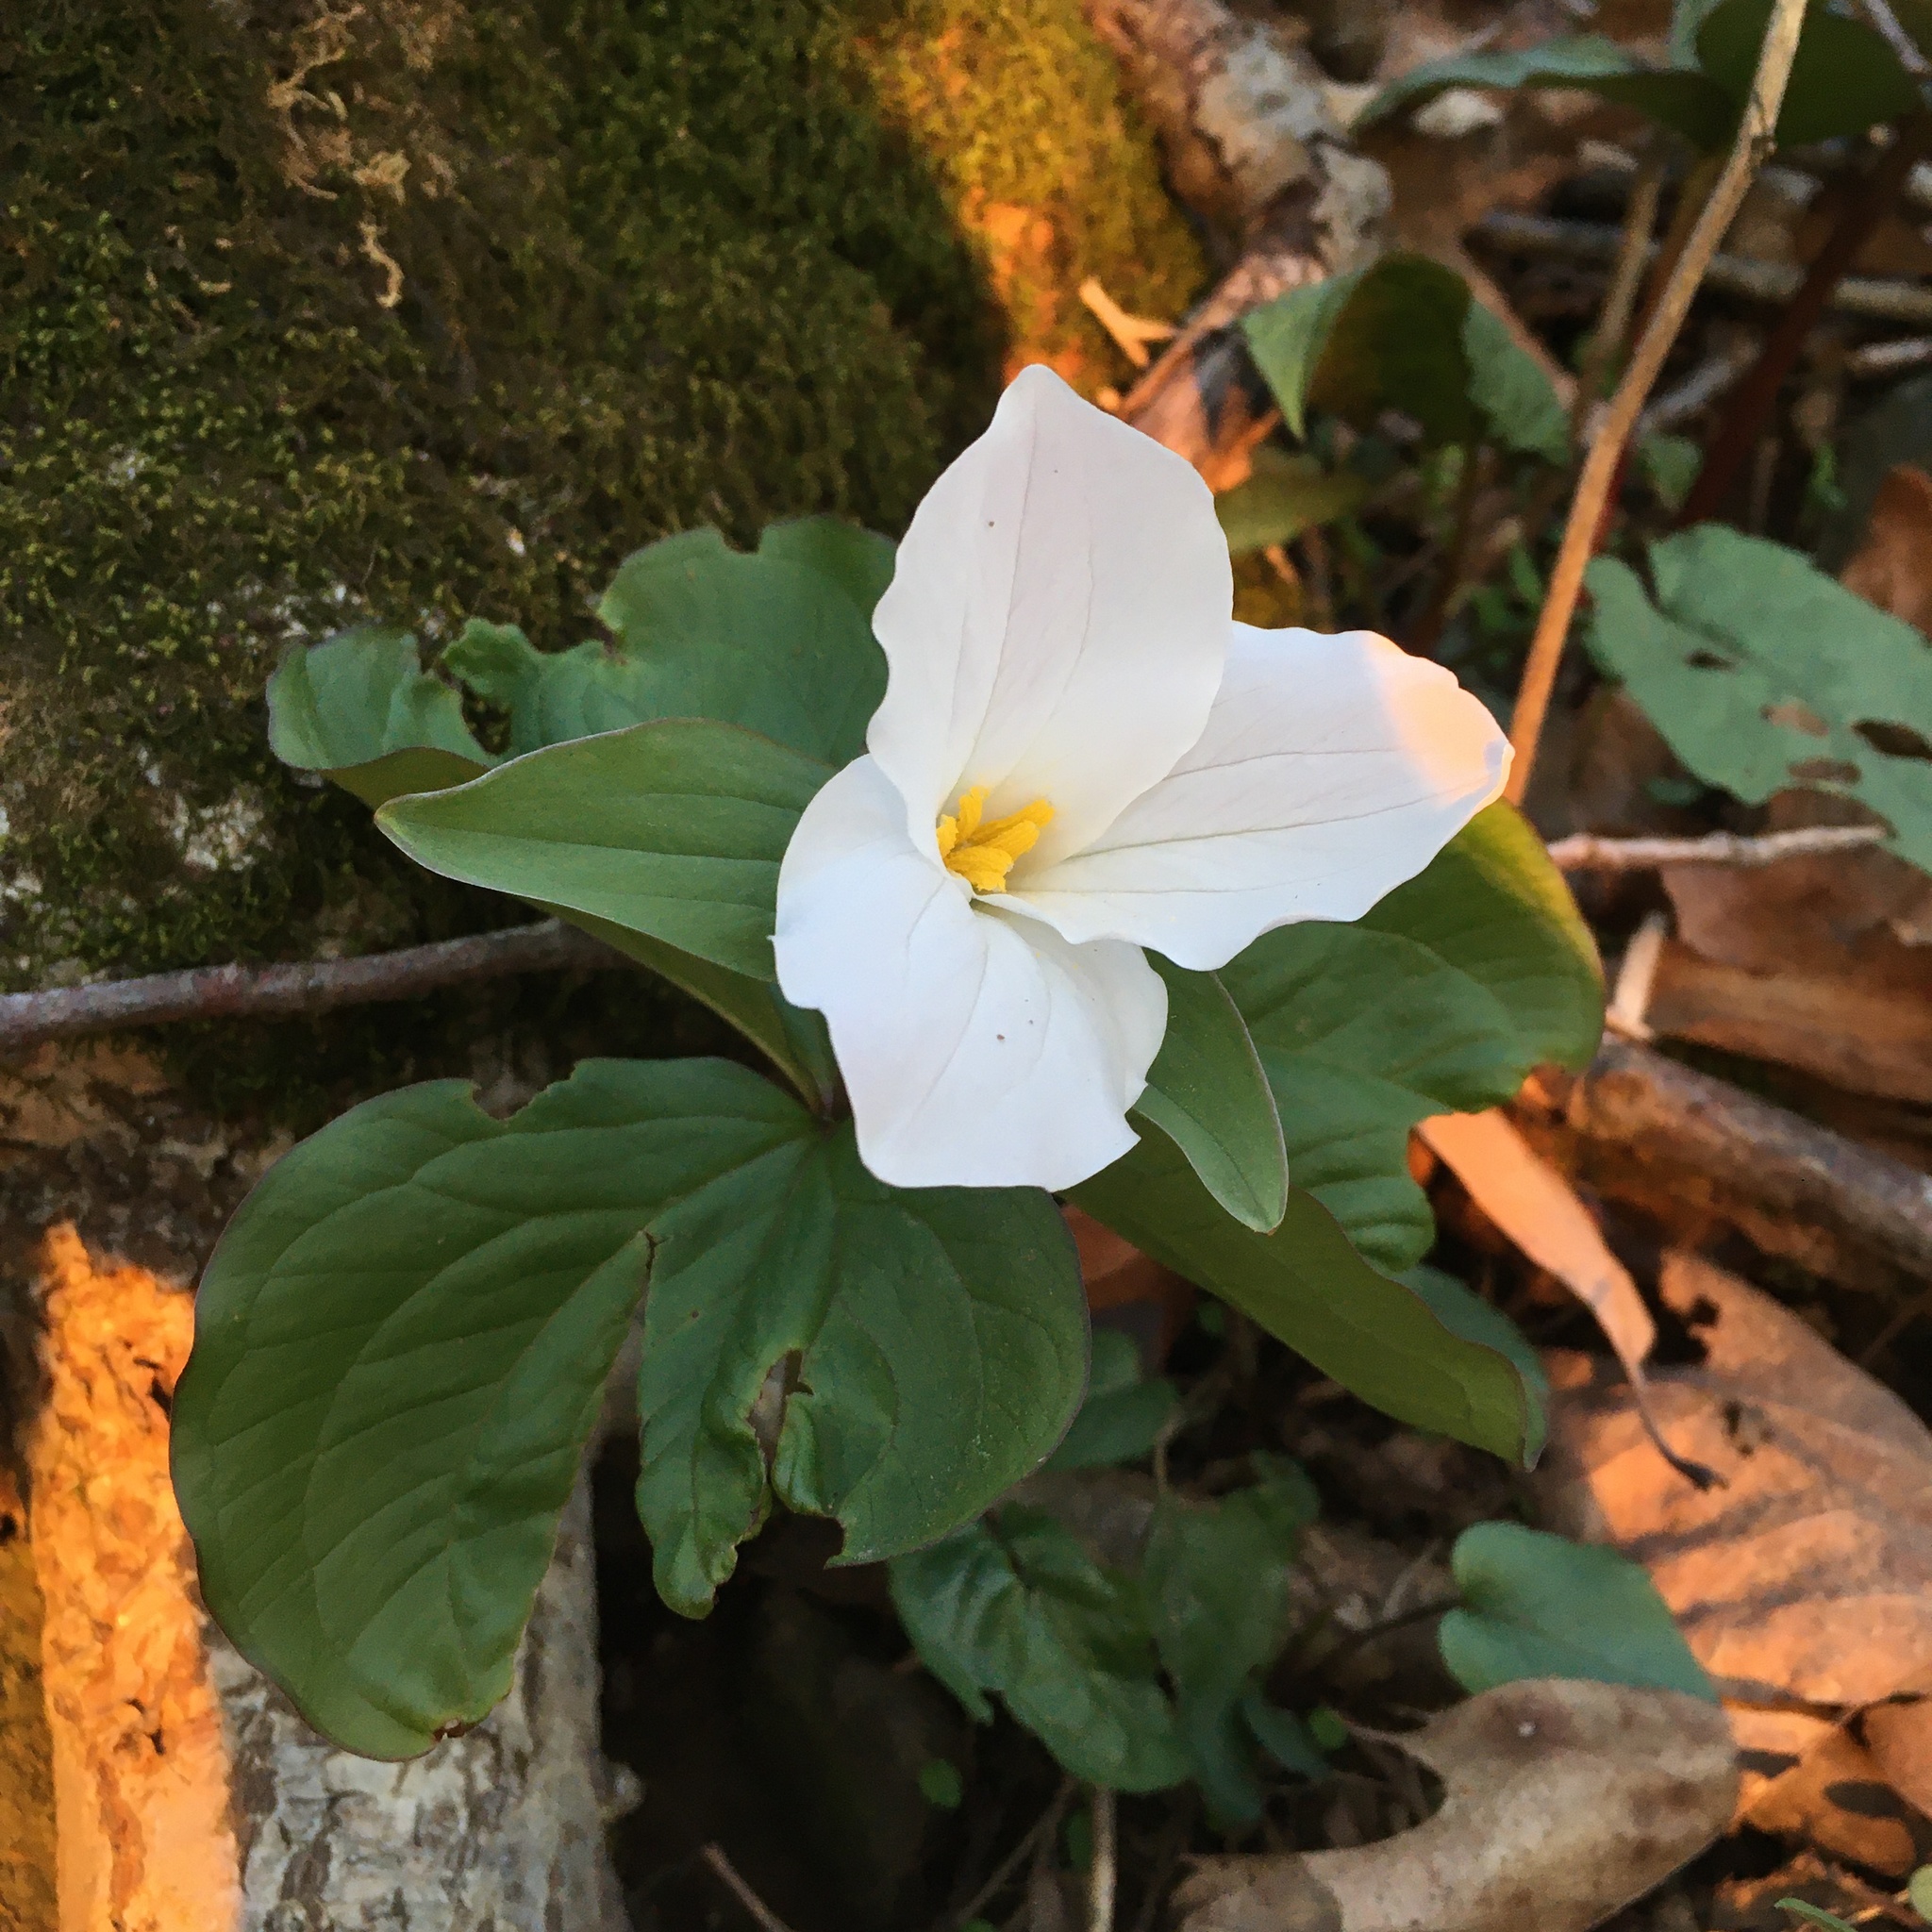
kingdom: Plantae
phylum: Tracheophyta
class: Liliopsida
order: Liliales
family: Melanthiaceae
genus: Trillium
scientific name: Trillium grandiflorum
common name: Great white trillium
